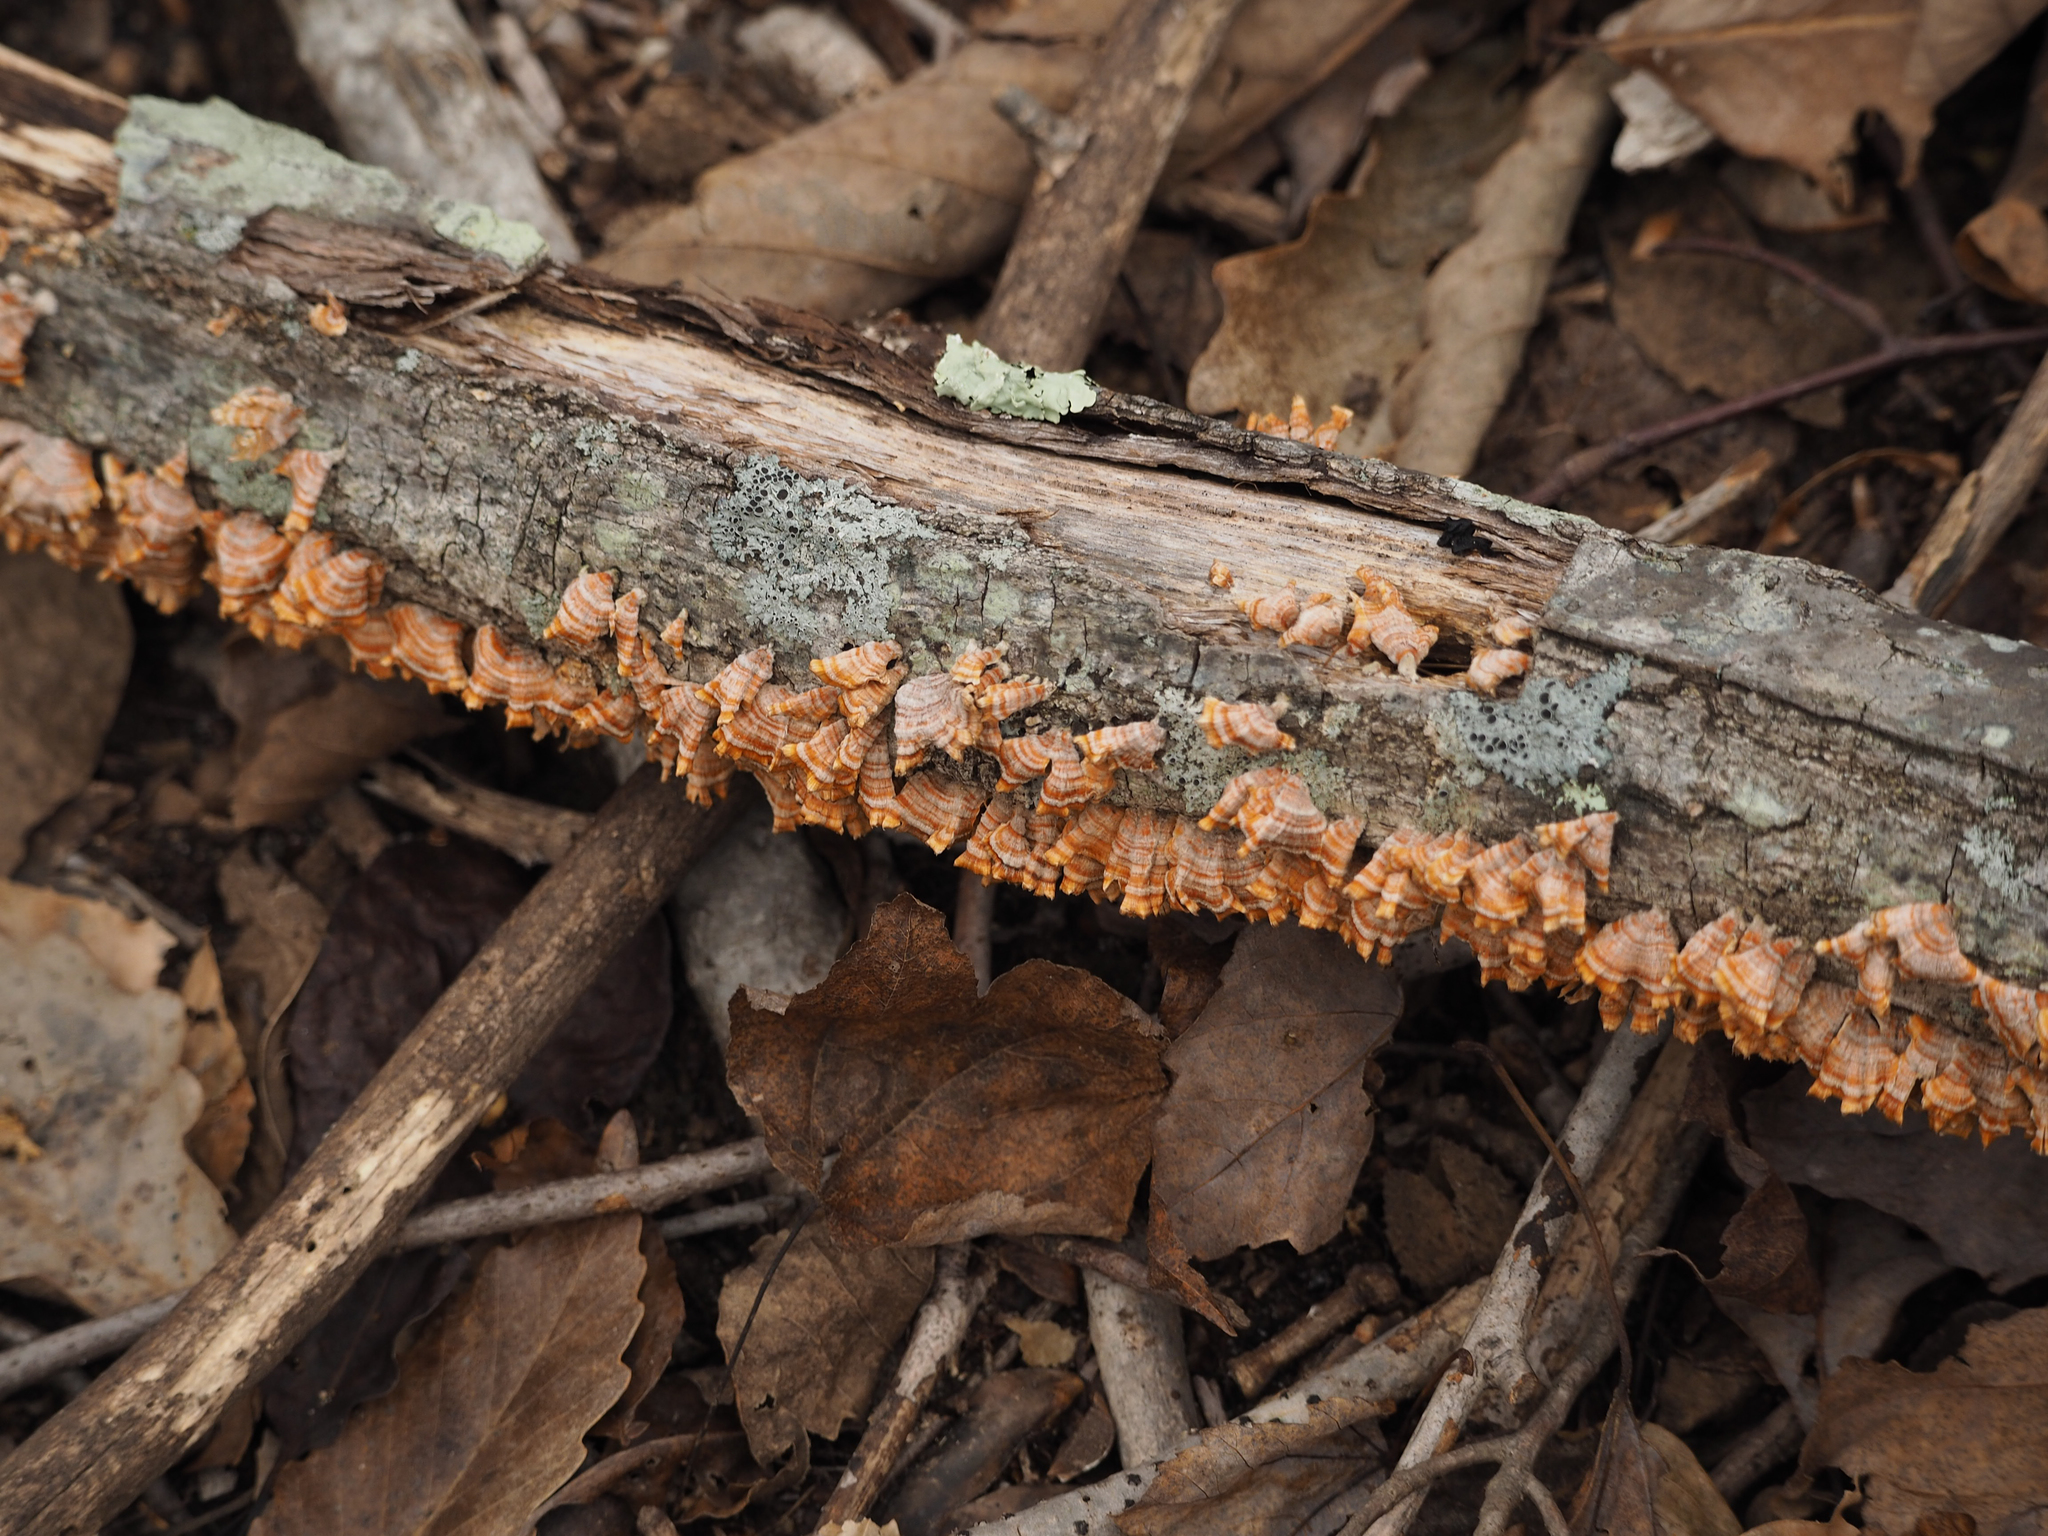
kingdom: Fungi
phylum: Basidiomycota
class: Agaricomycetes
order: Russulales
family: Stereaceae
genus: Stereum
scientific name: Stereum complicatum
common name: Crowded parchment
